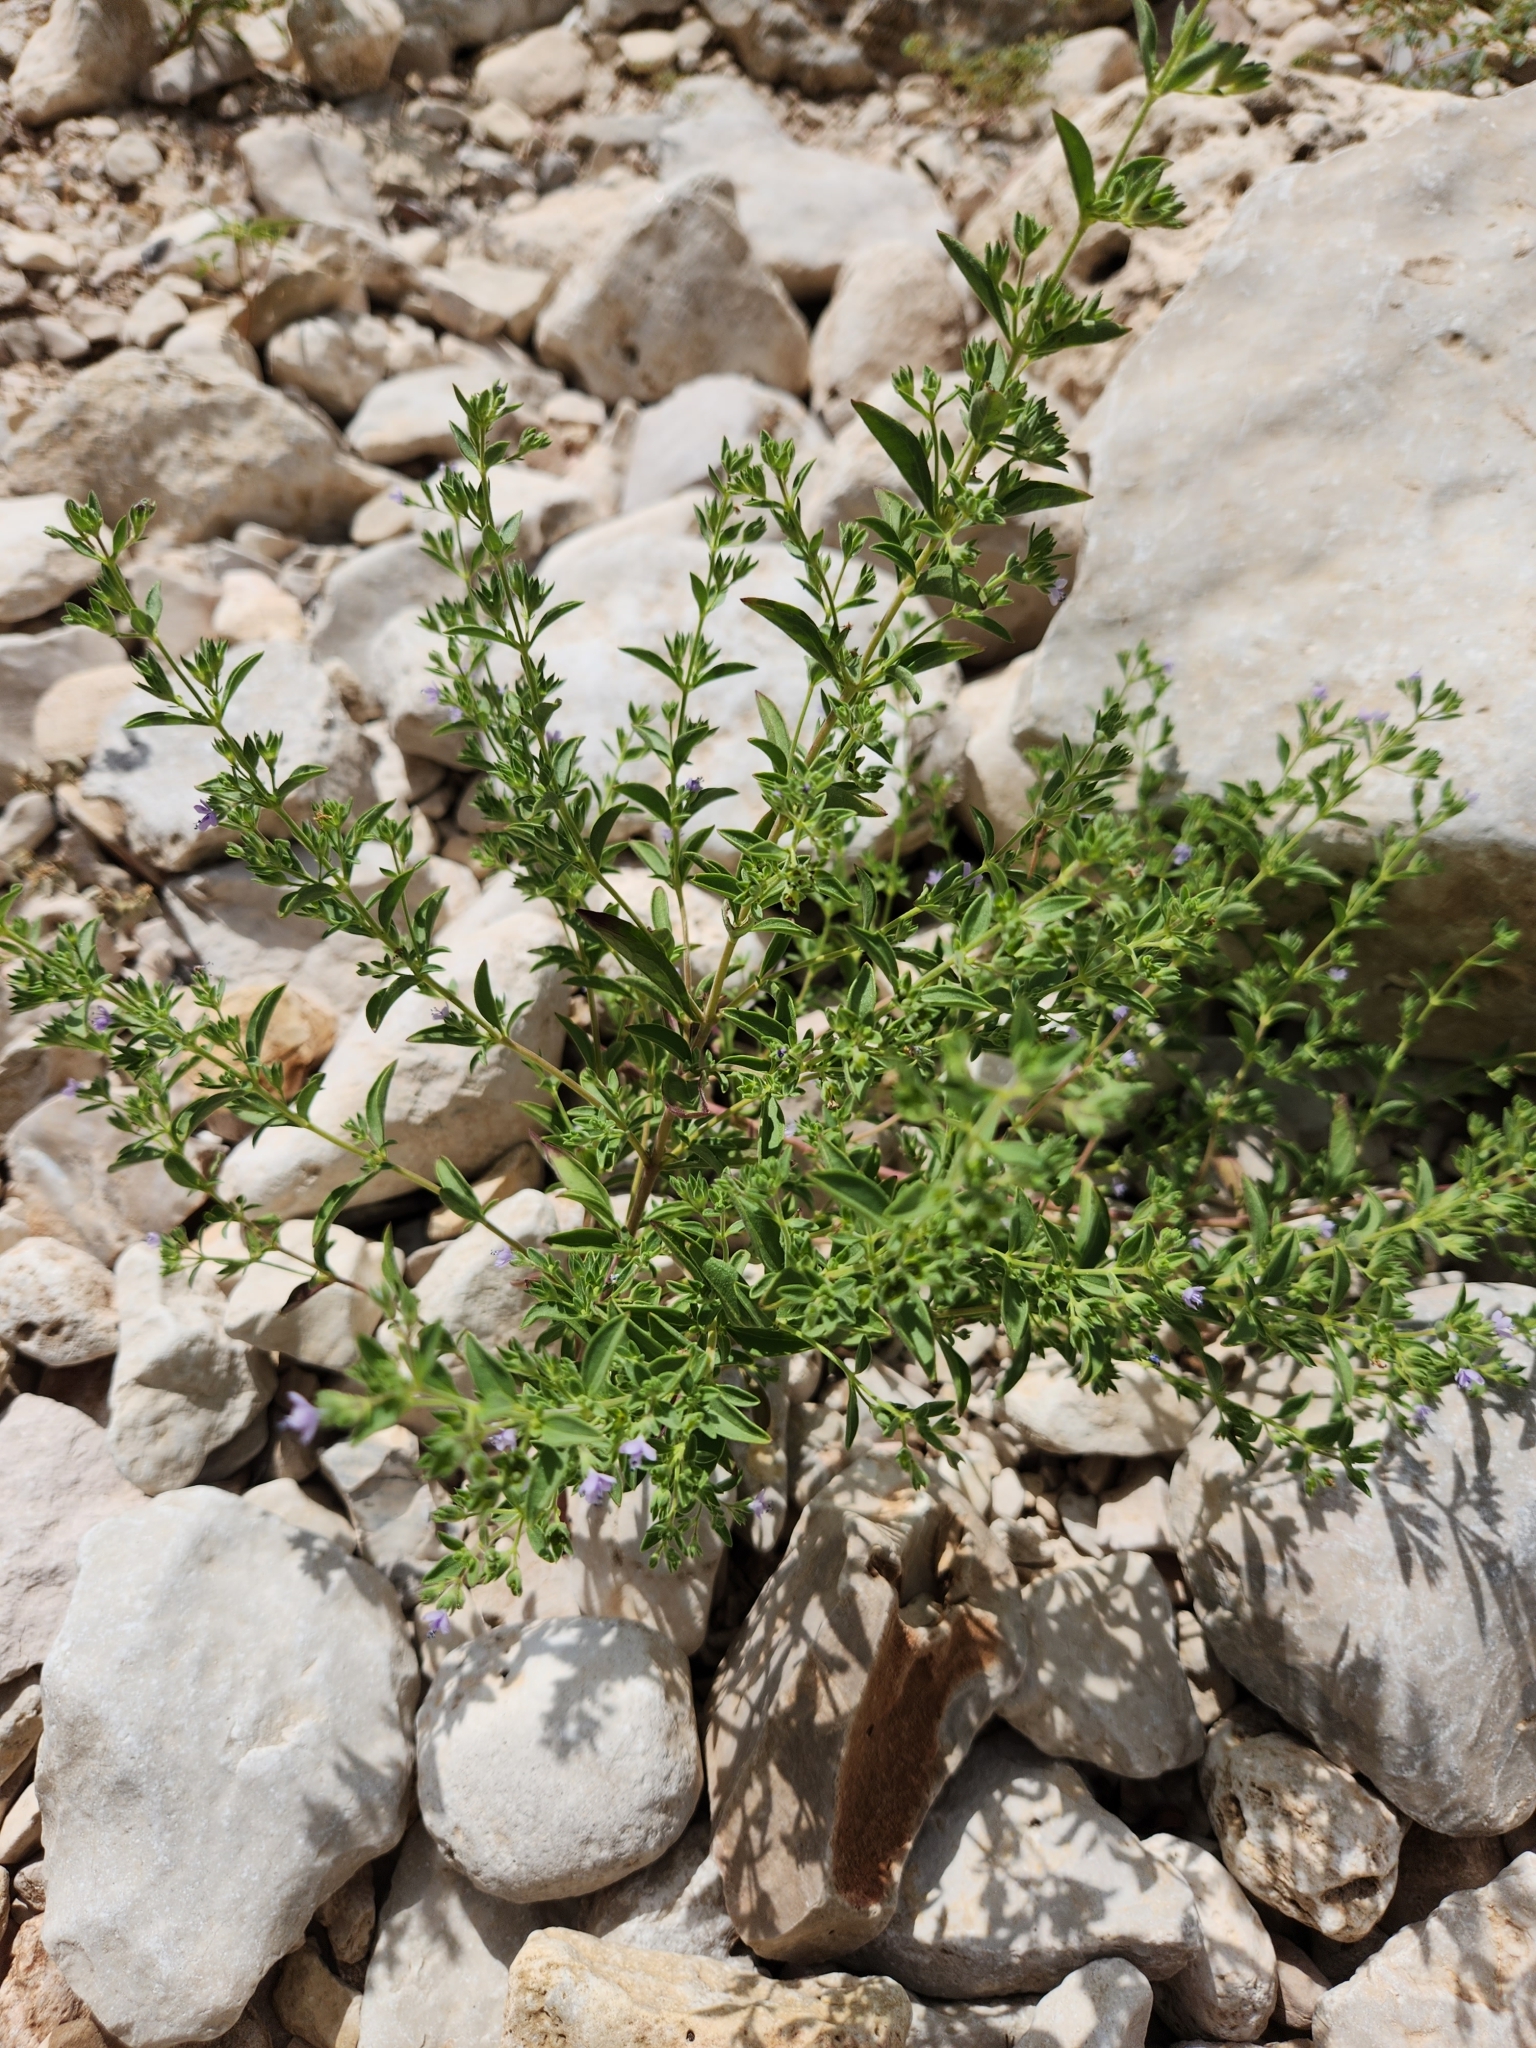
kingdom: Plantae
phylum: Tracheophyta
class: Magnoliopsida
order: Lamiales
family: Lamiaceae
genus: Trichostema
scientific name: Trichostema brachiatum
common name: False pennyroyal
